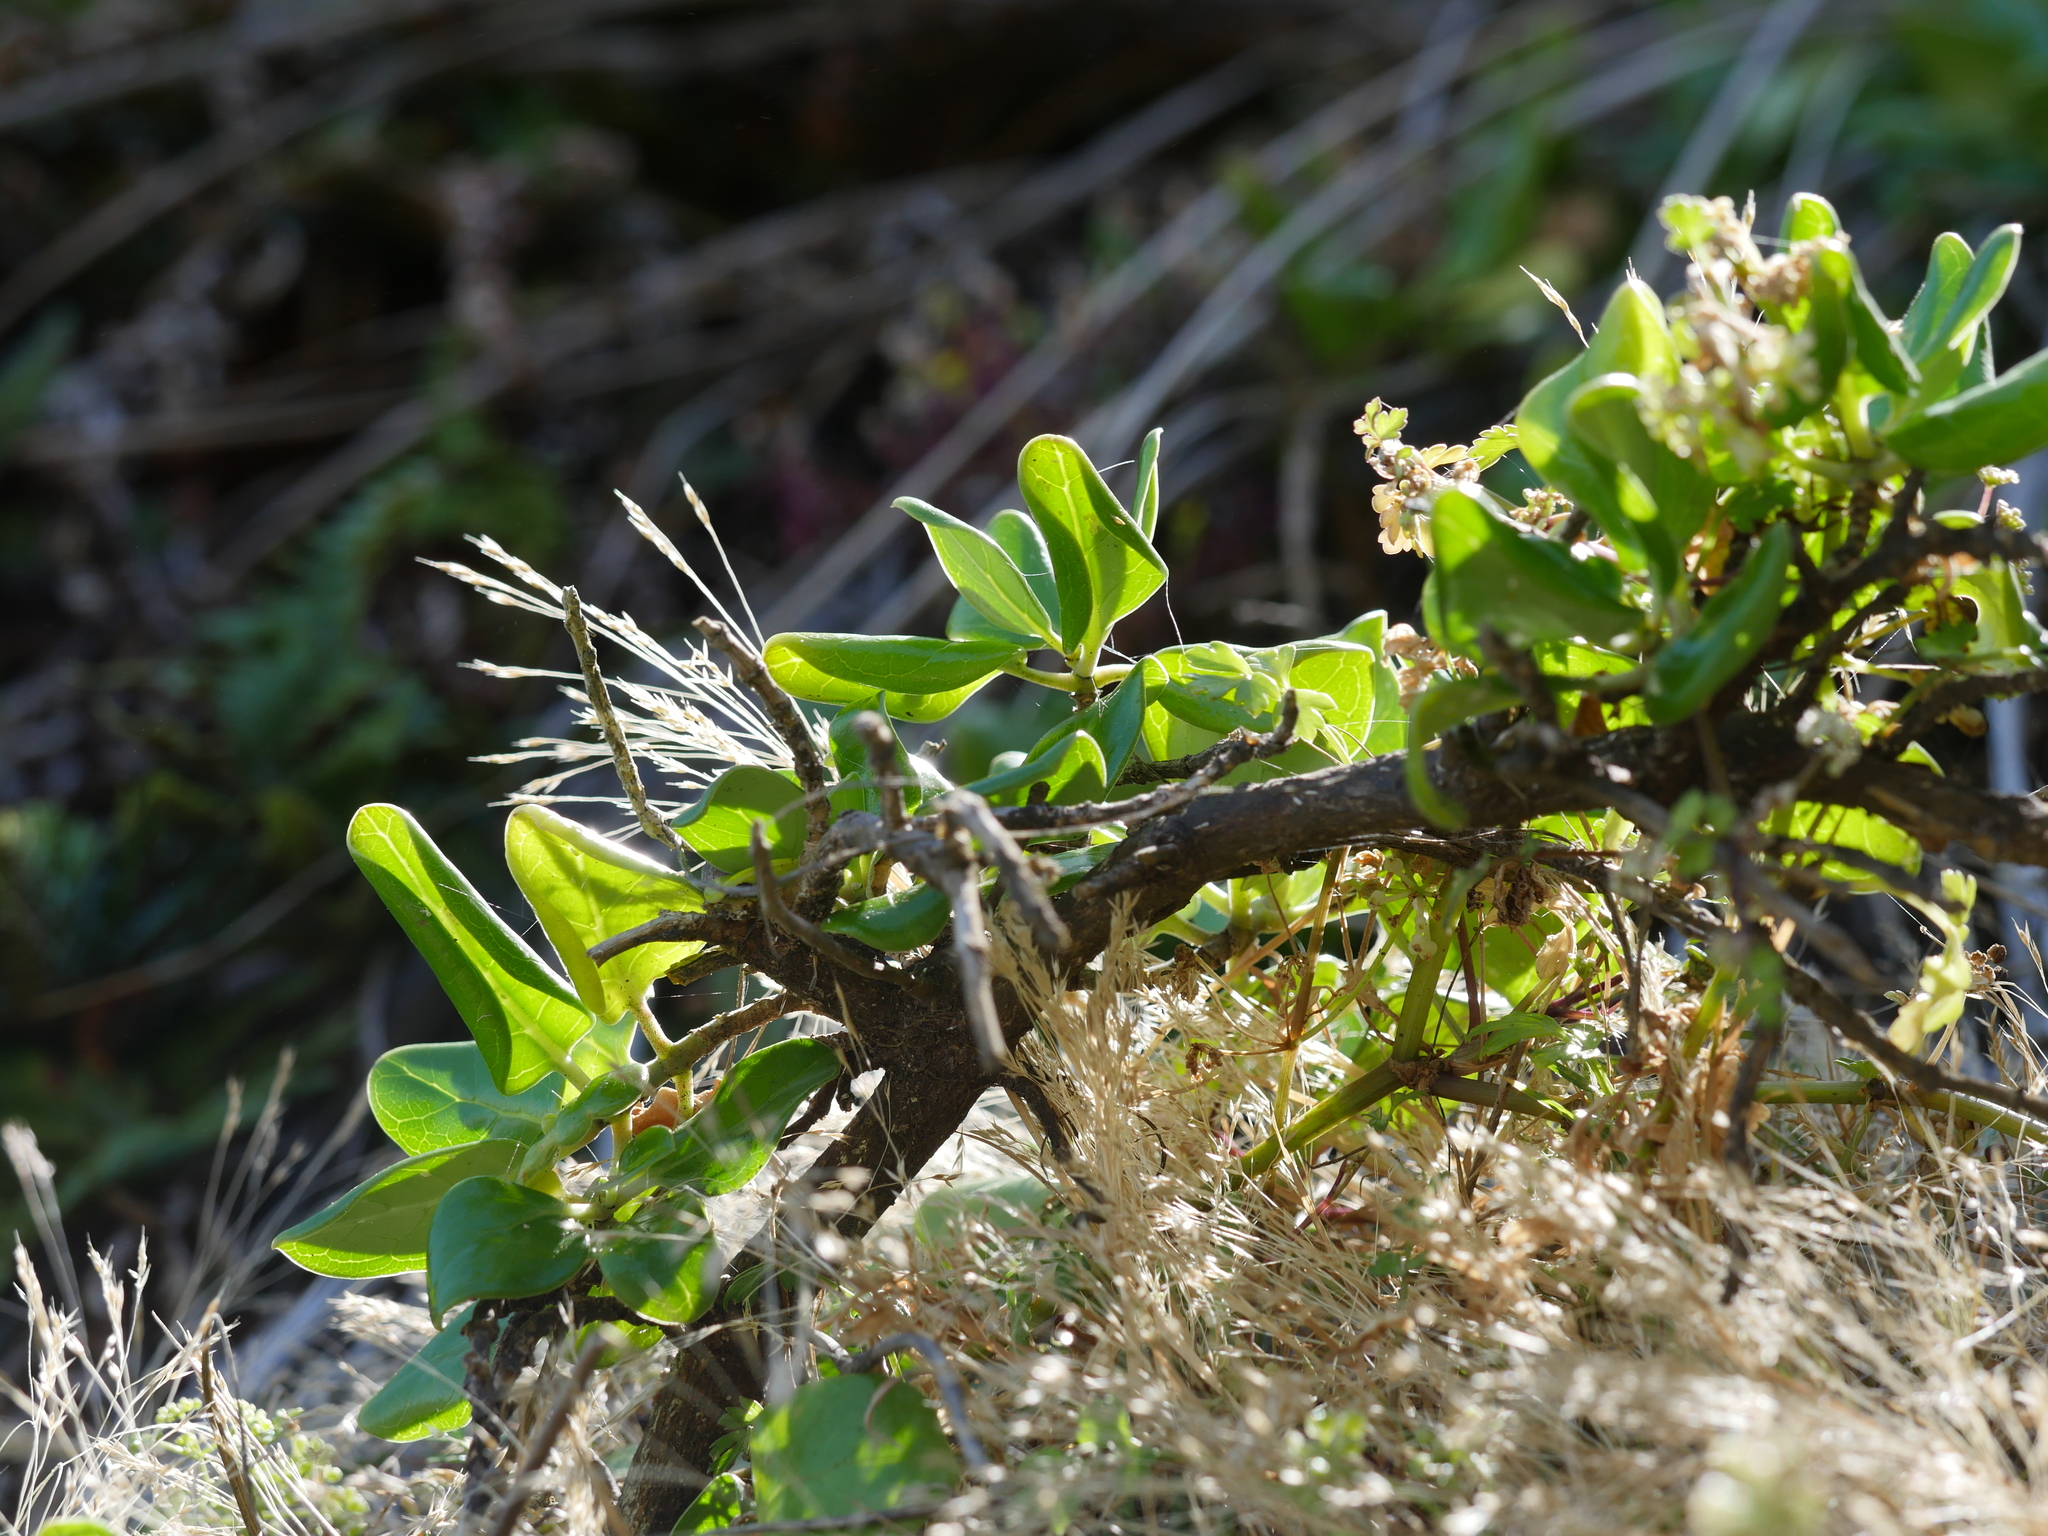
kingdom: Plantae
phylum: Tracheophyta
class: Magnoliopsida
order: Gentianales
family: Rubiaceae
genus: Coprosma
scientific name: Coprosma repens
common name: Tree bedstraw
